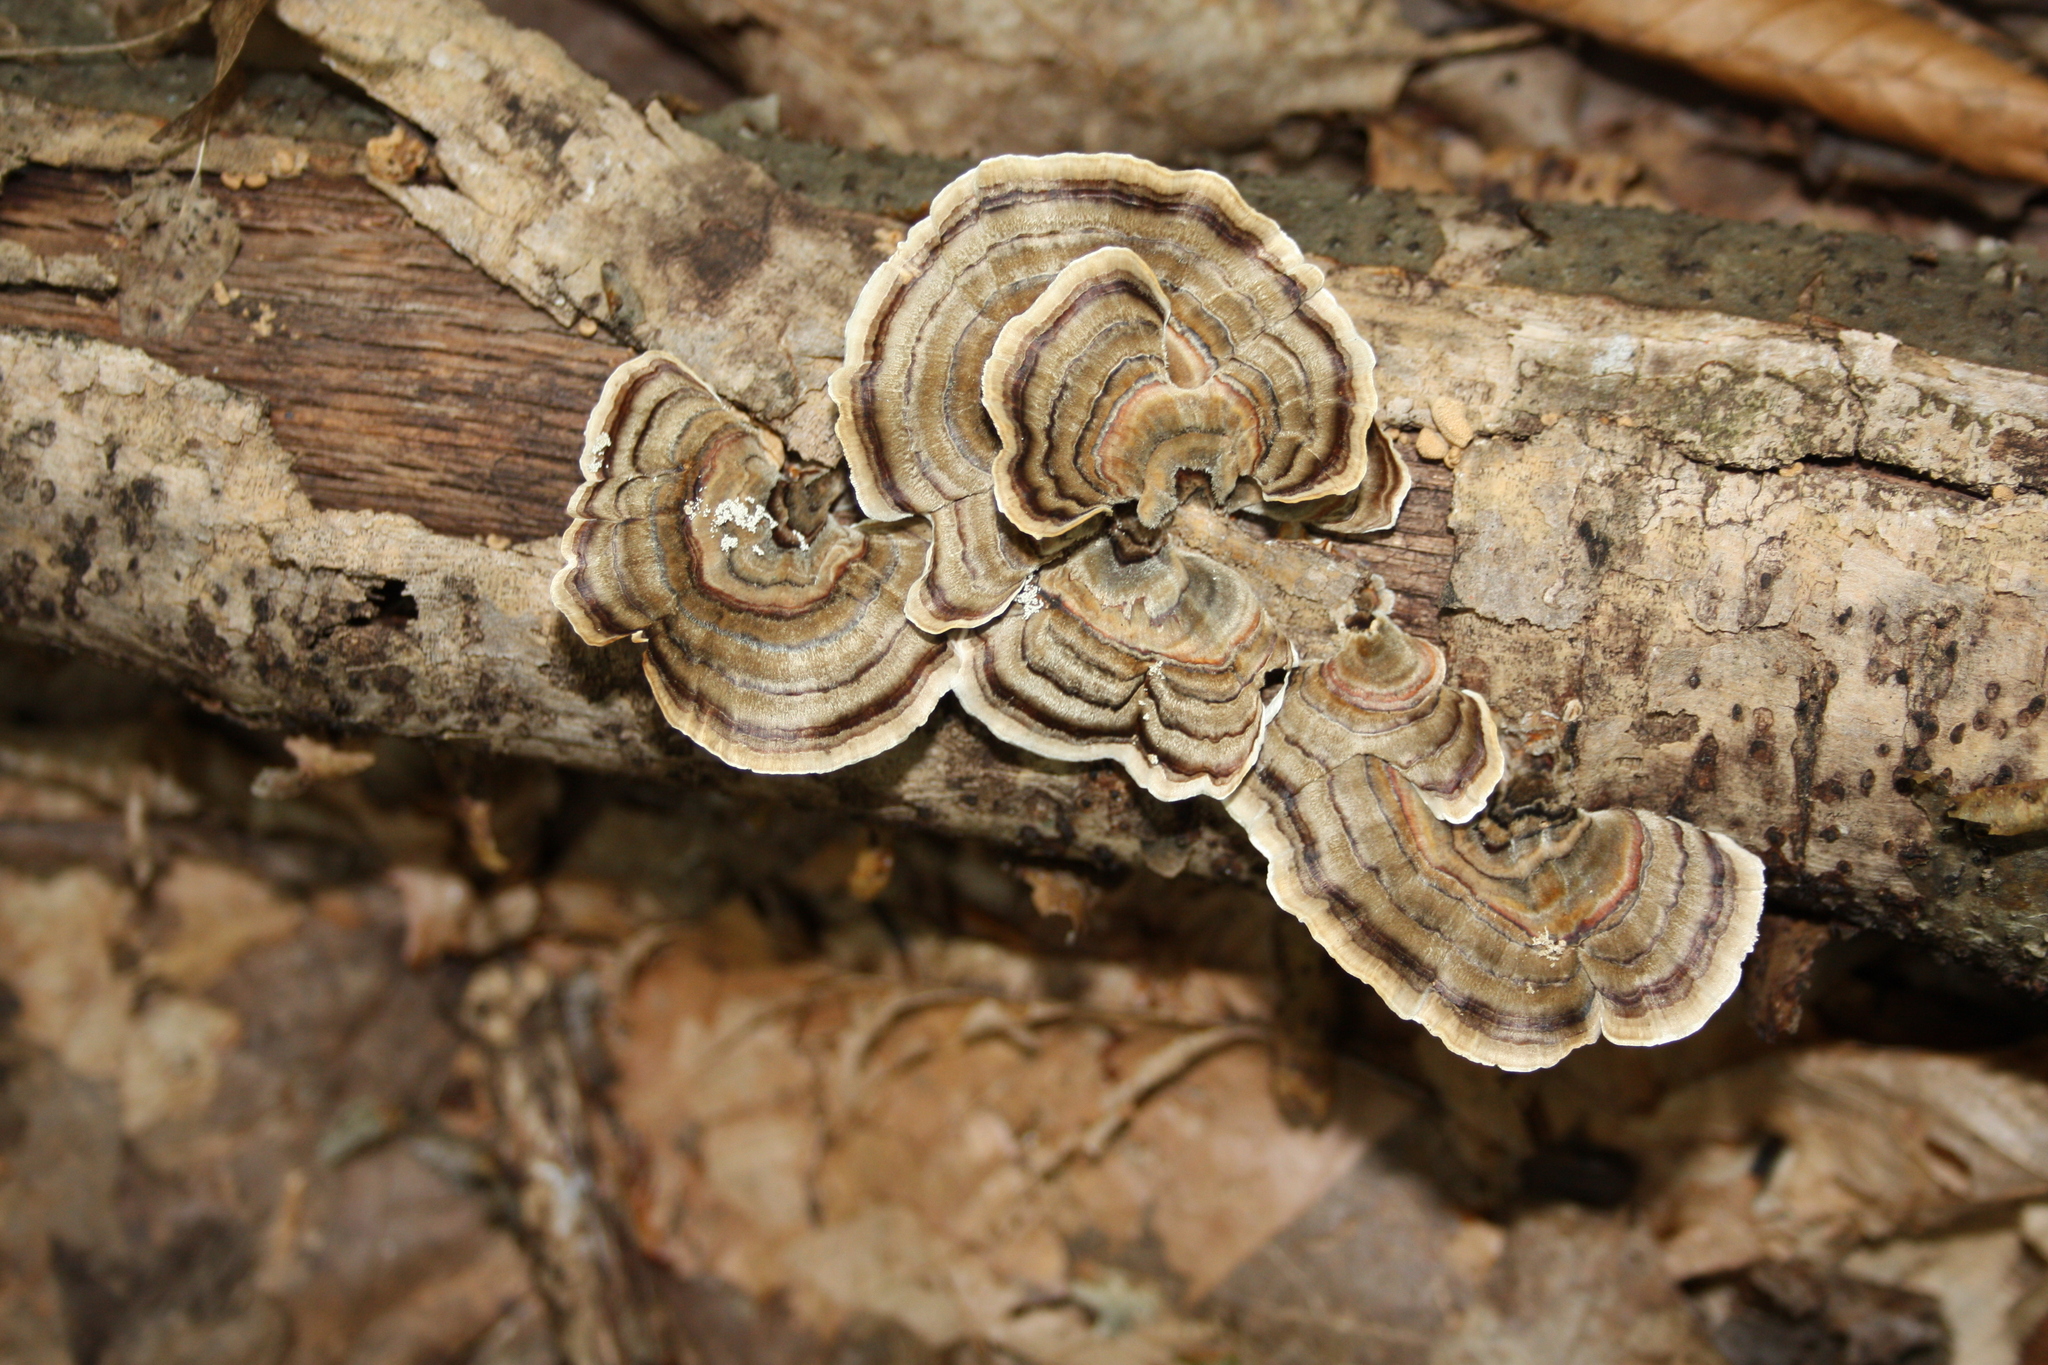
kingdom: Fungi
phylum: Basidiomycota
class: Agaricomycetes
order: Polyporales
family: Polyporaceae
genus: Trametes
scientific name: Trametes versicolor
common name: Turkeytail
